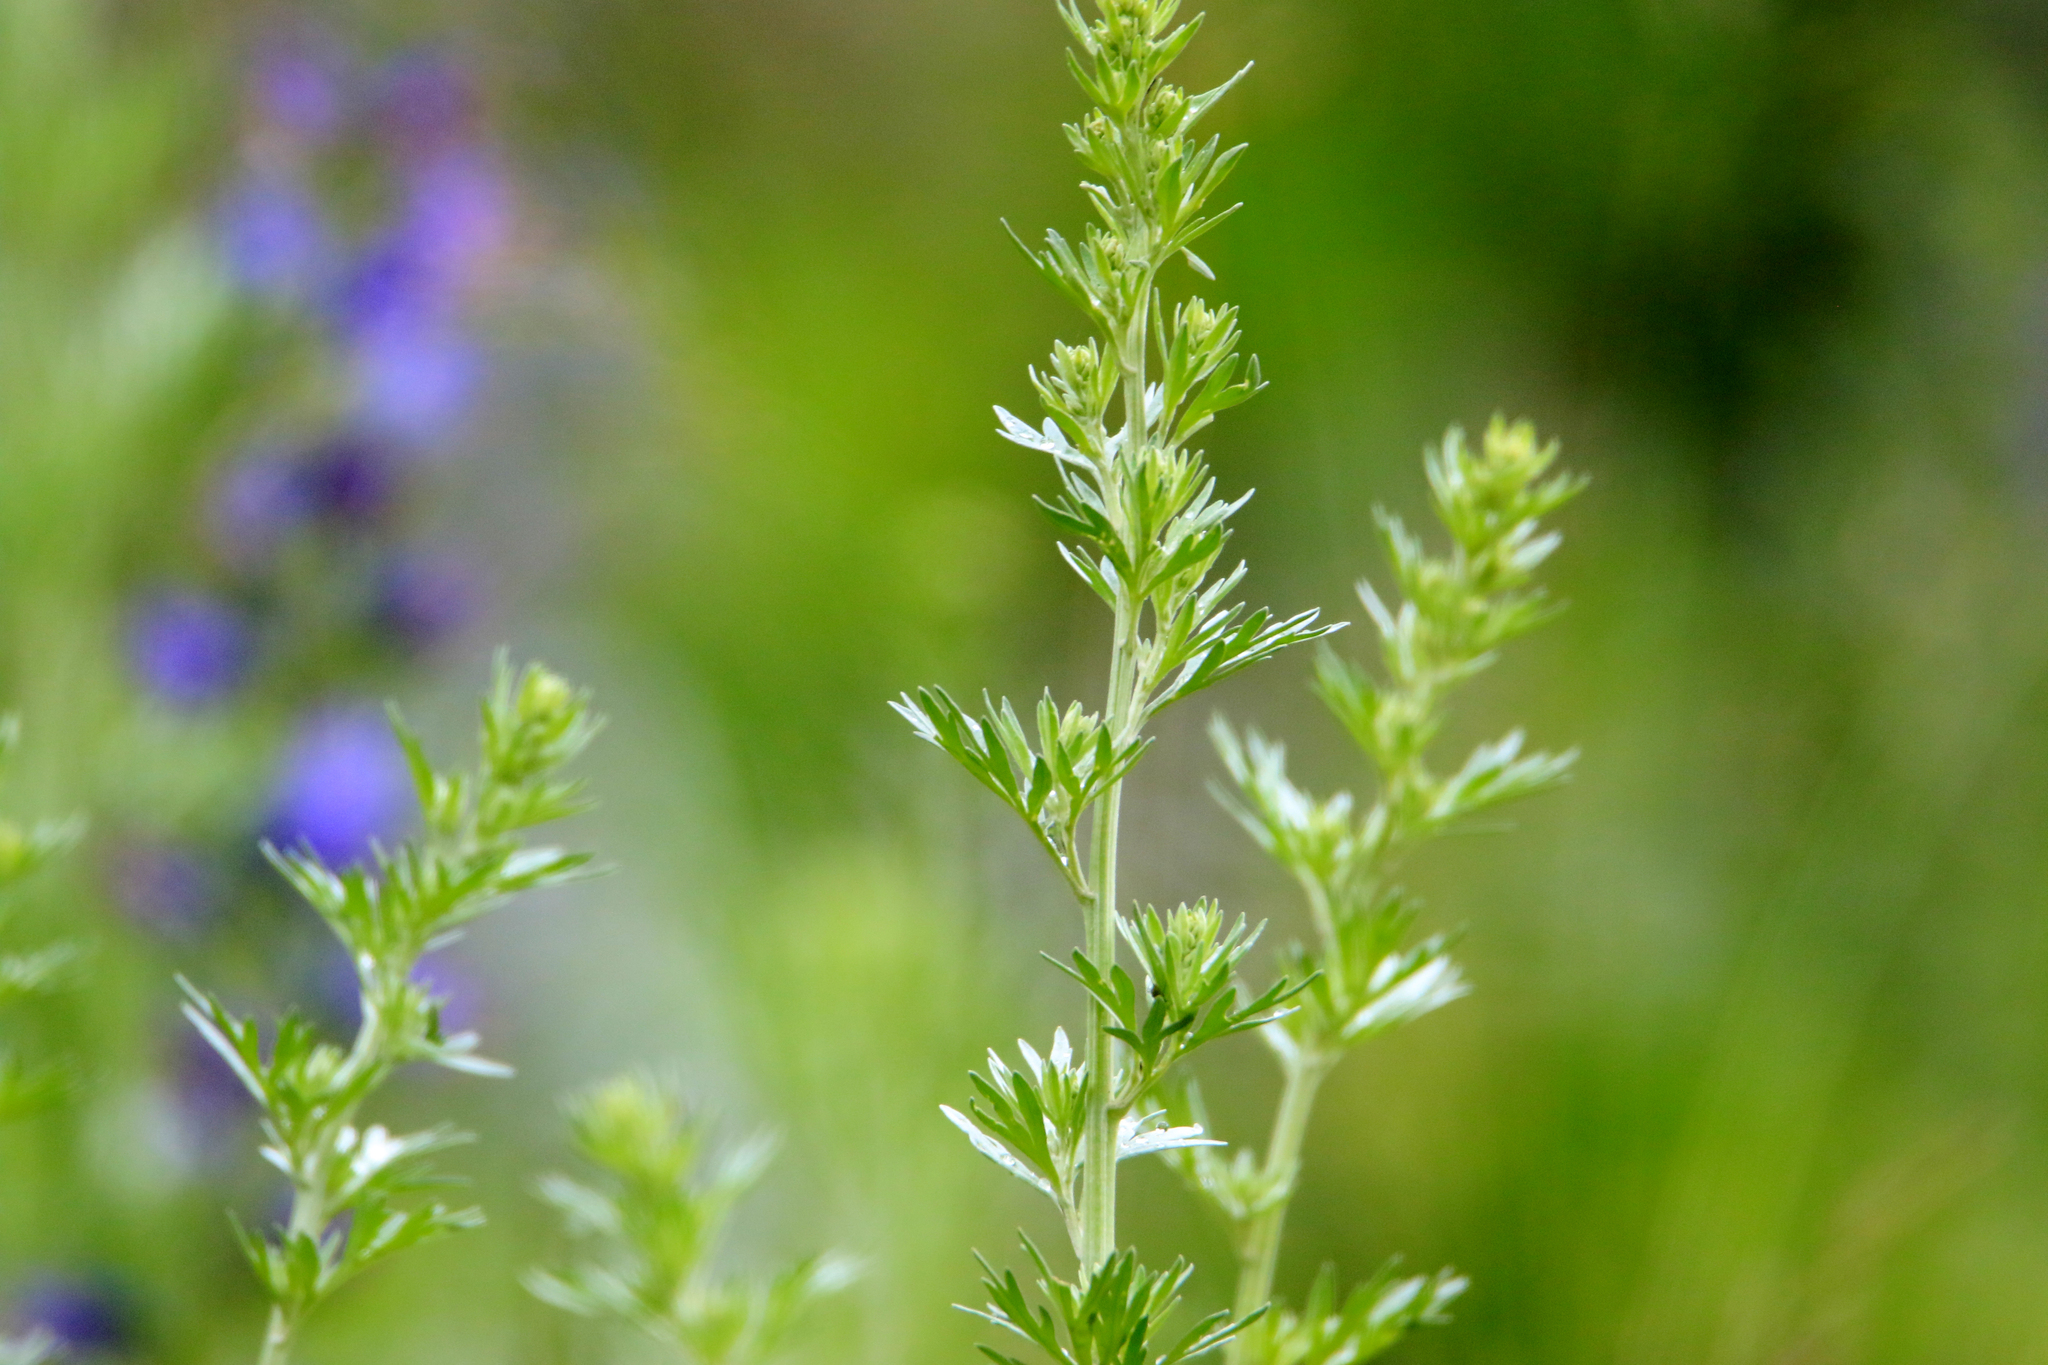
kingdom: Plantae
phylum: Tracheophyta
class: Magnoliopsida
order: Asterales
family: Asteraceae
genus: Artemisia
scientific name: Artemisia absinthium
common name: Wormwood
